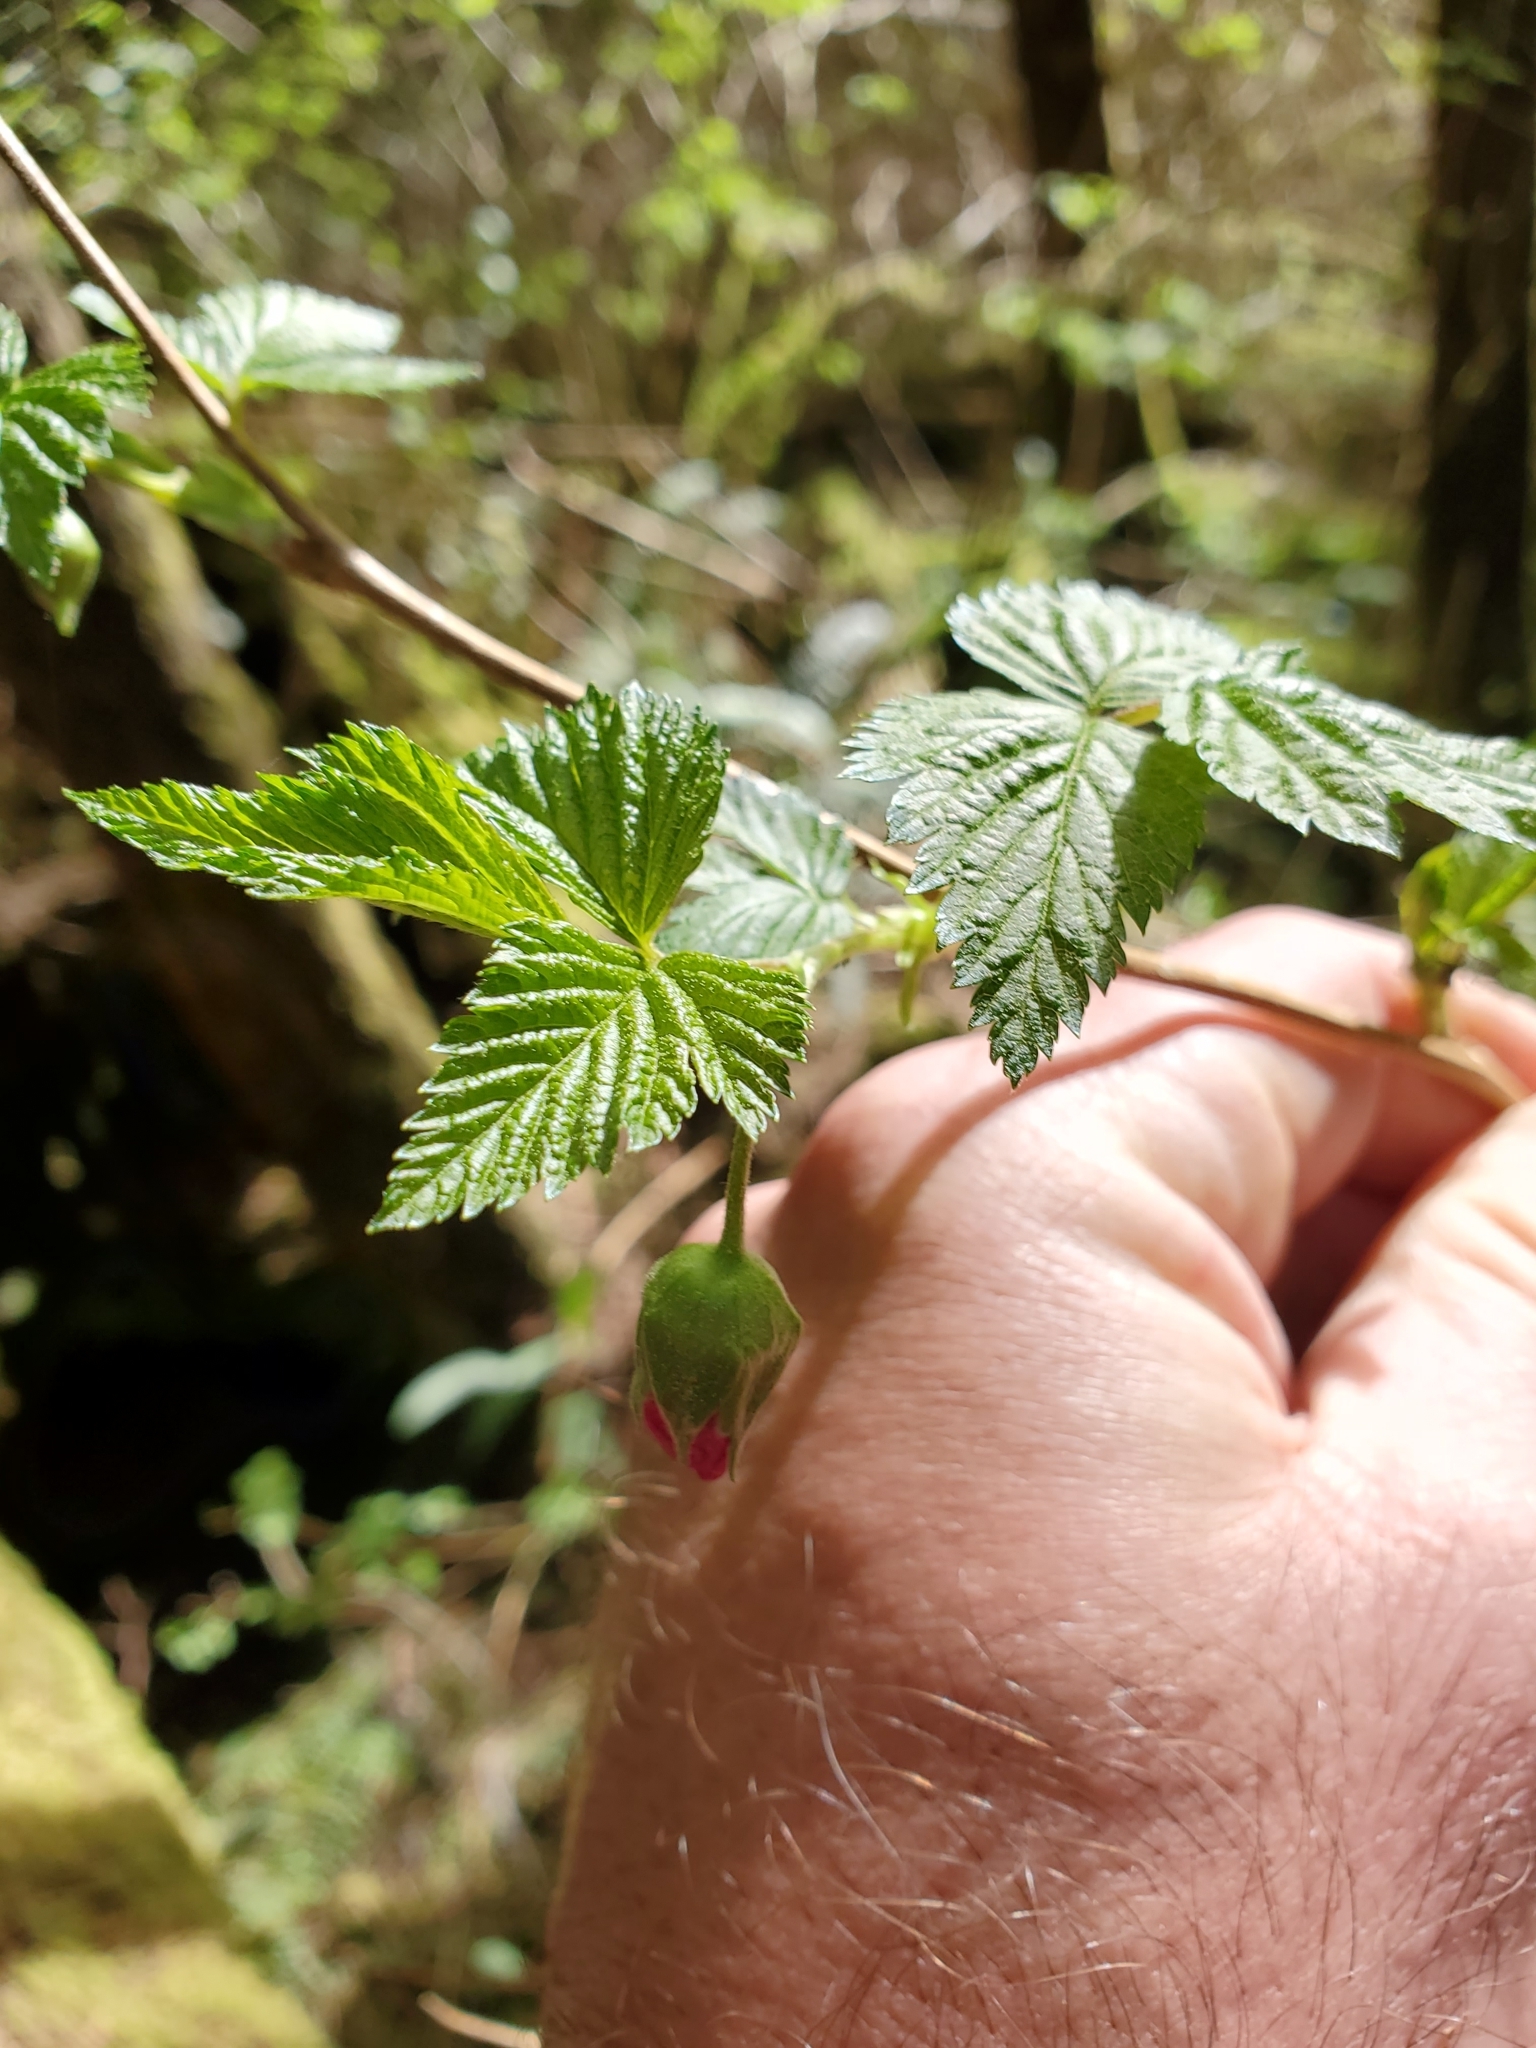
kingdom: Plantae
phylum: Tracheophyta
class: Magnoliopsida
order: Rosales
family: Rosaceae
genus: Rubus
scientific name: Rubus spectabilis
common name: Salmonberry
